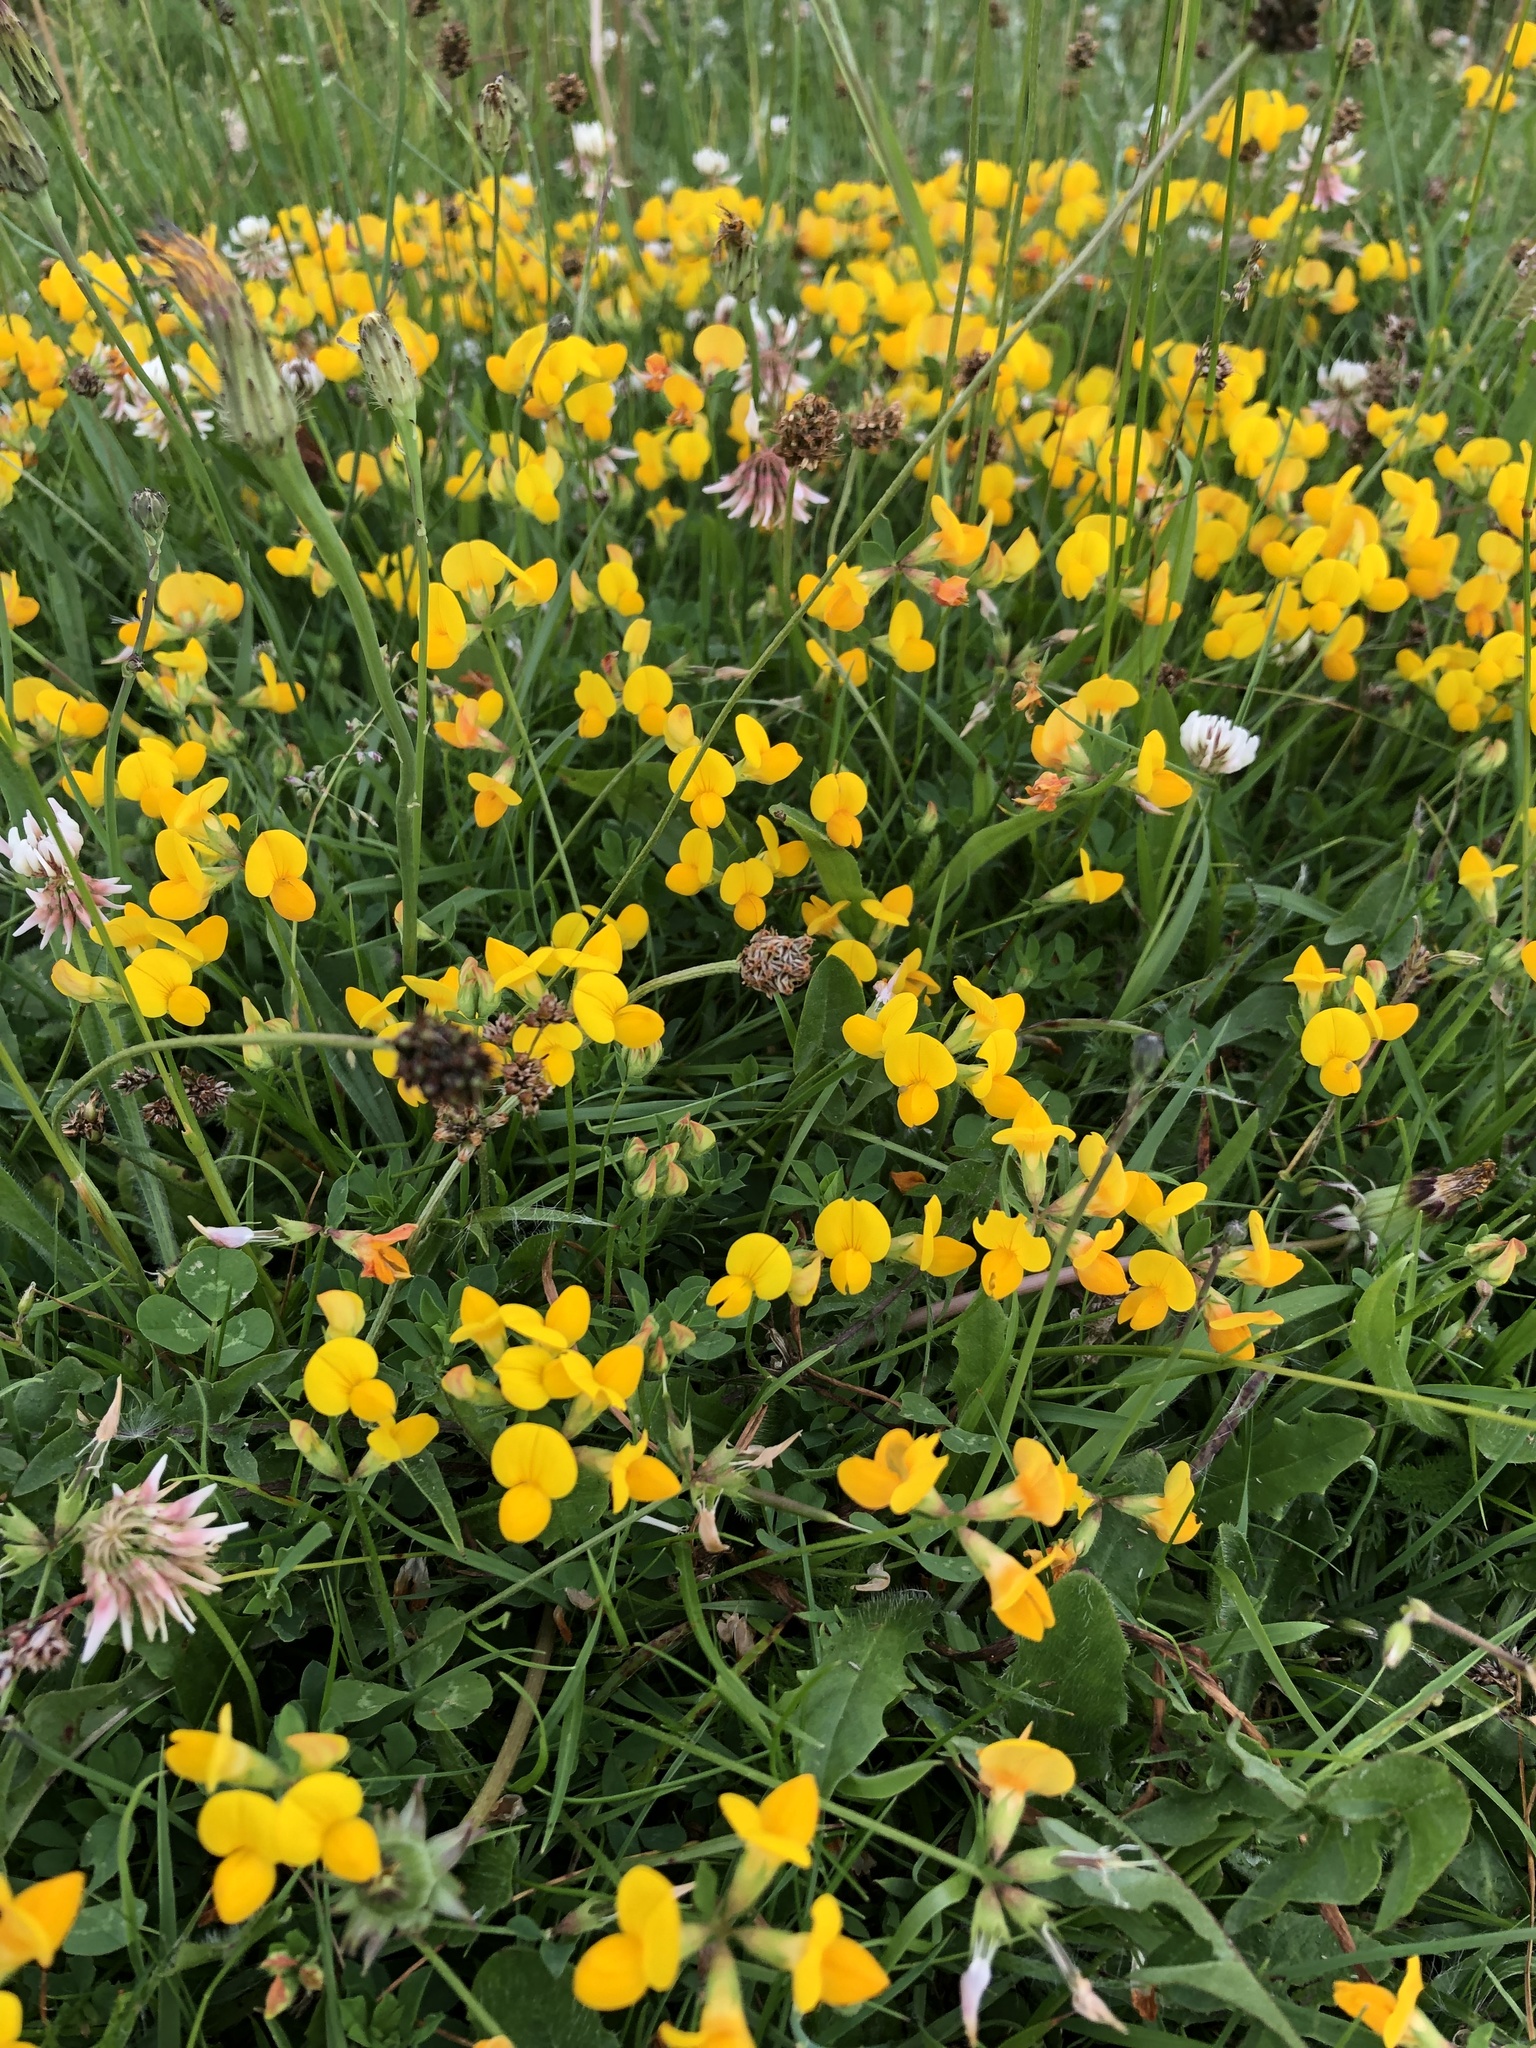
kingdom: Plantae
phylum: Tracheophyta
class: Magnoliopsida
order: Fabales
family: Fabaceae
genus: Lotus
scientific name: Lotus corniculatus
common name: Common bird's-foot-trefoil
